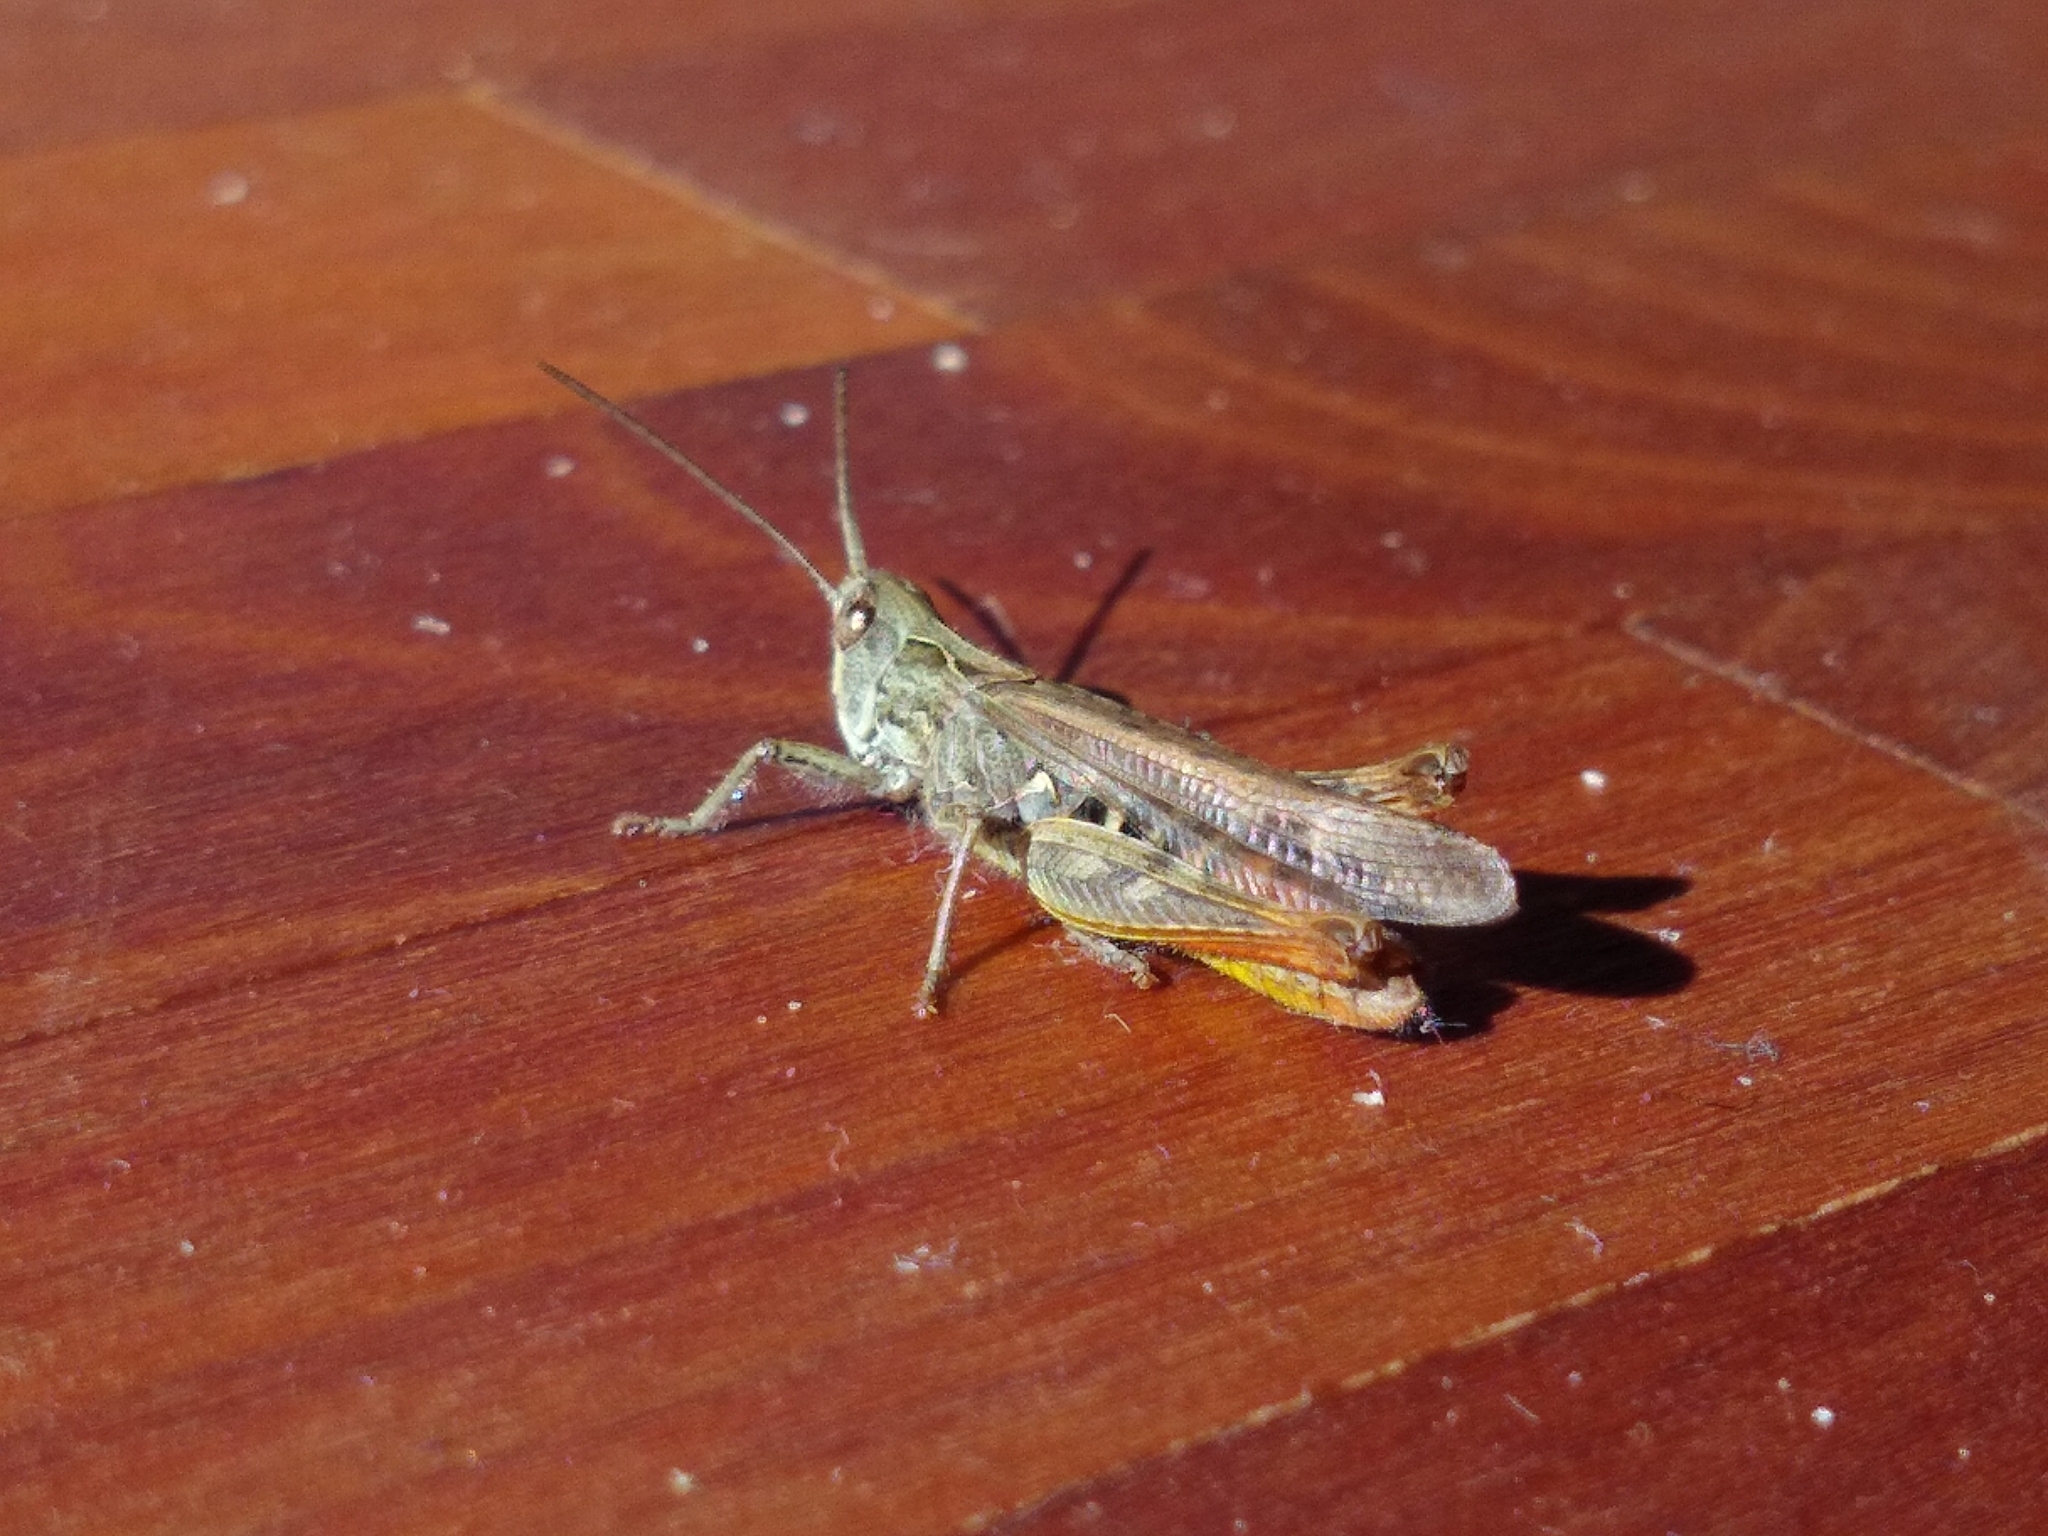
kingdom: Animalia
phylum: Arthropoda
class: Insecta
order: Orthoptera
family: Acrididae
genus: Chorthippus
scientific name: Chorthippus brunneus
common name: Field grasshopper
